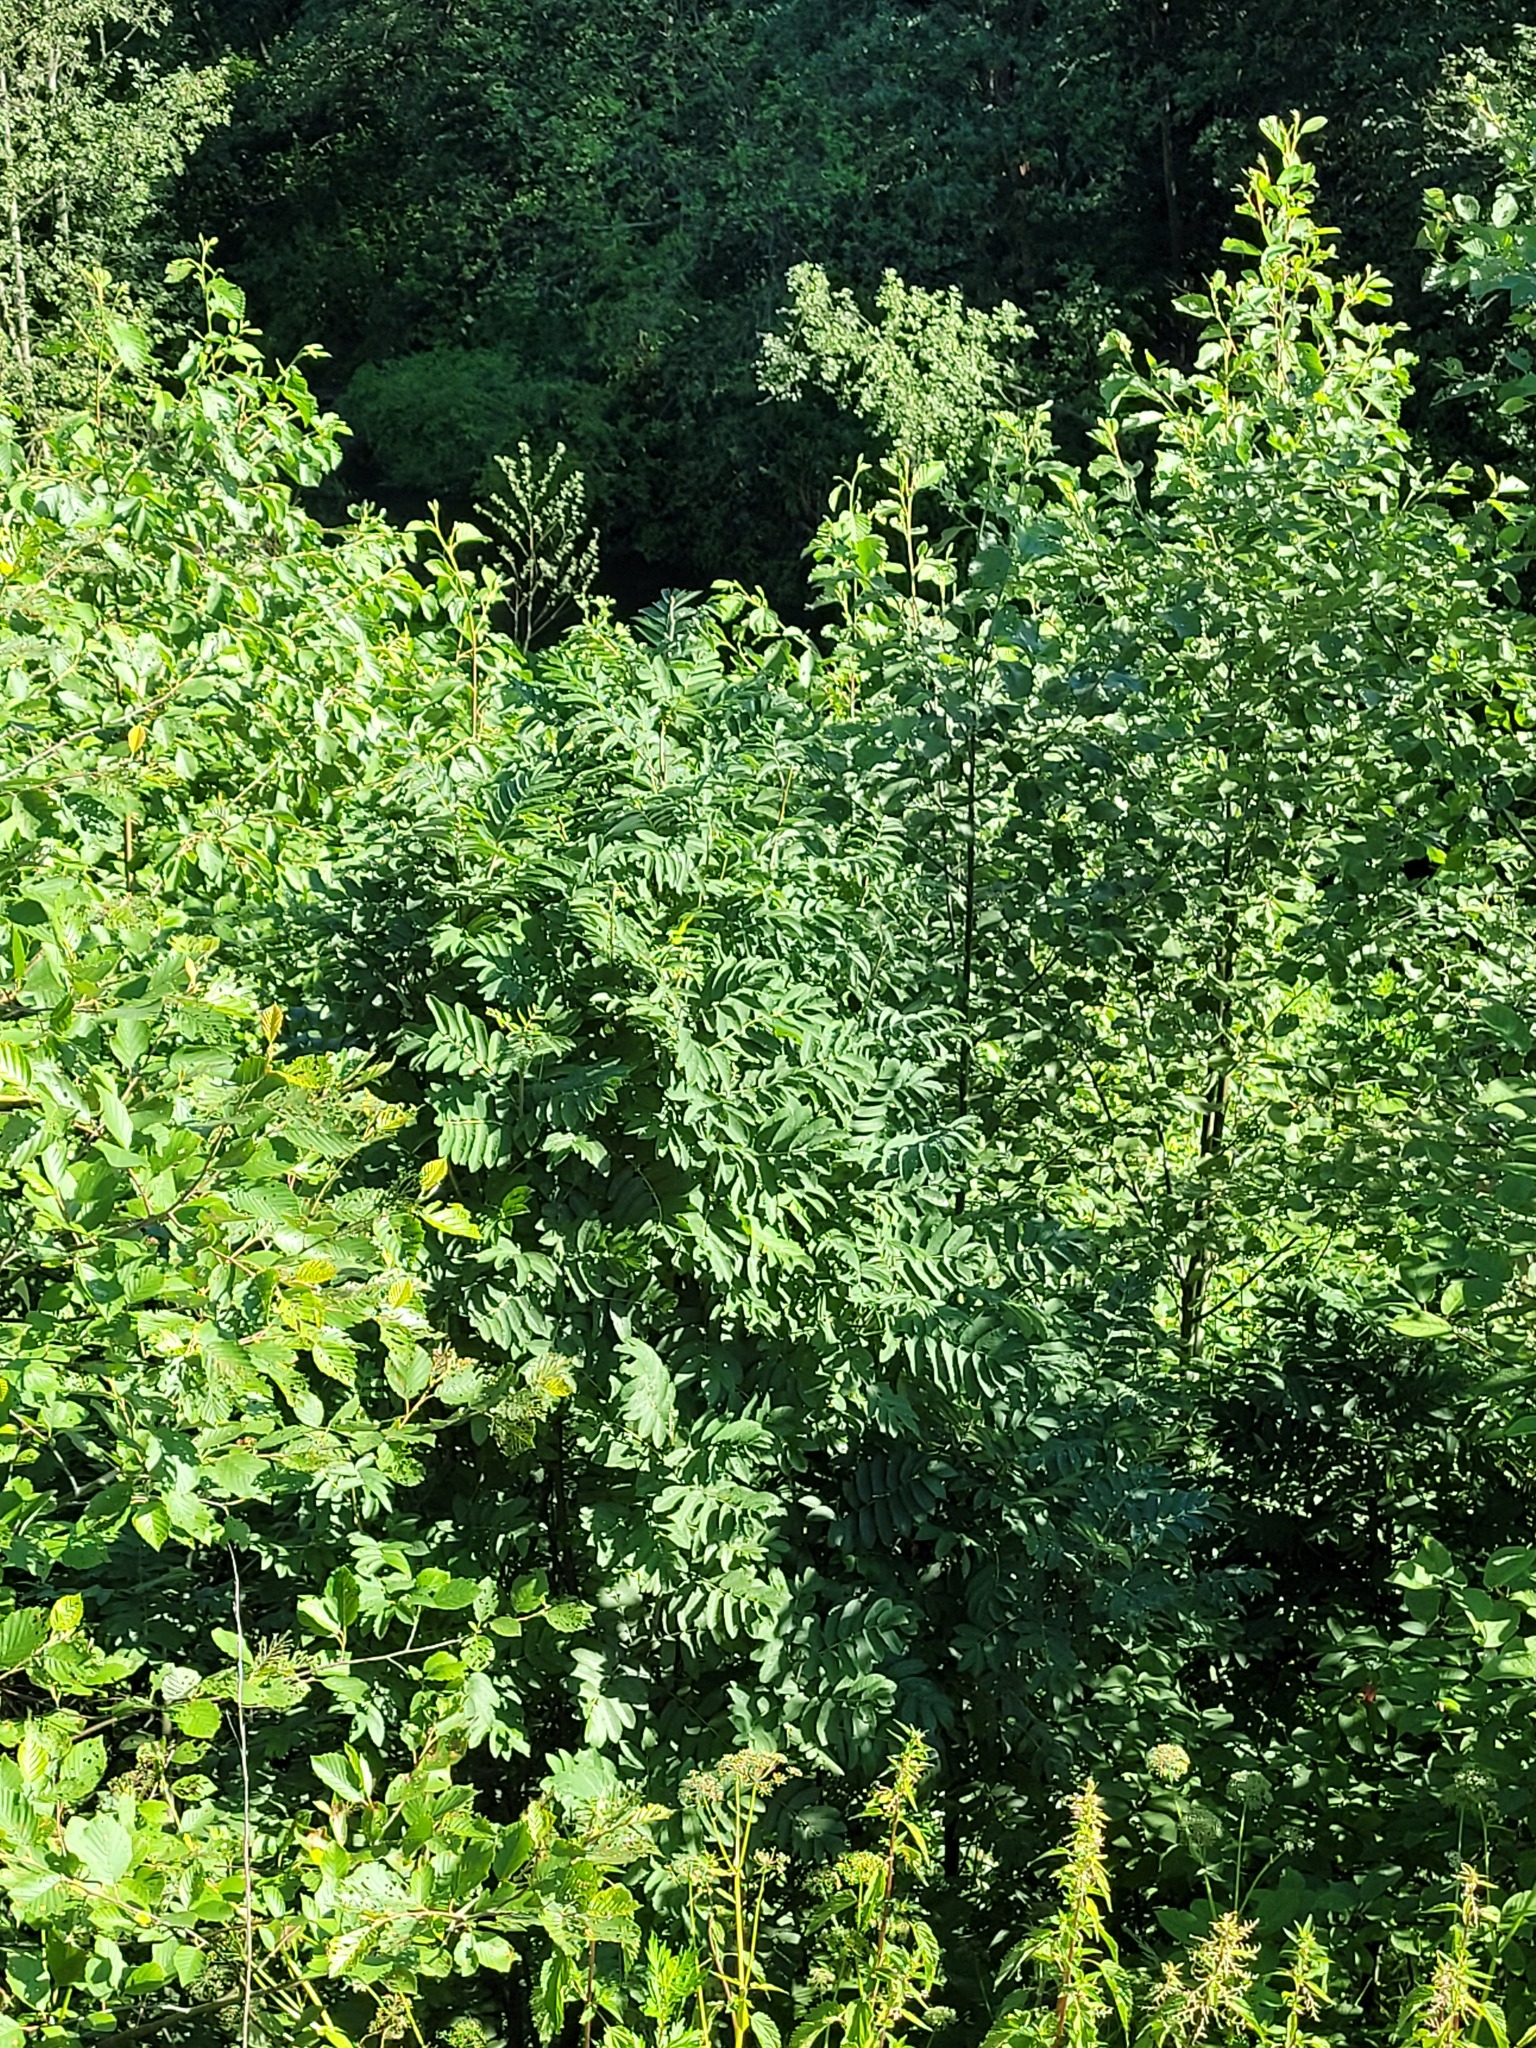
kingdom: Plantae
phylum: Tracheophyta
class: Magnoliopsida
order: Rosales
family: Rosaceae
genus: Sorbus
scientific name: Sorbus aucuparia
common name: Rowan
